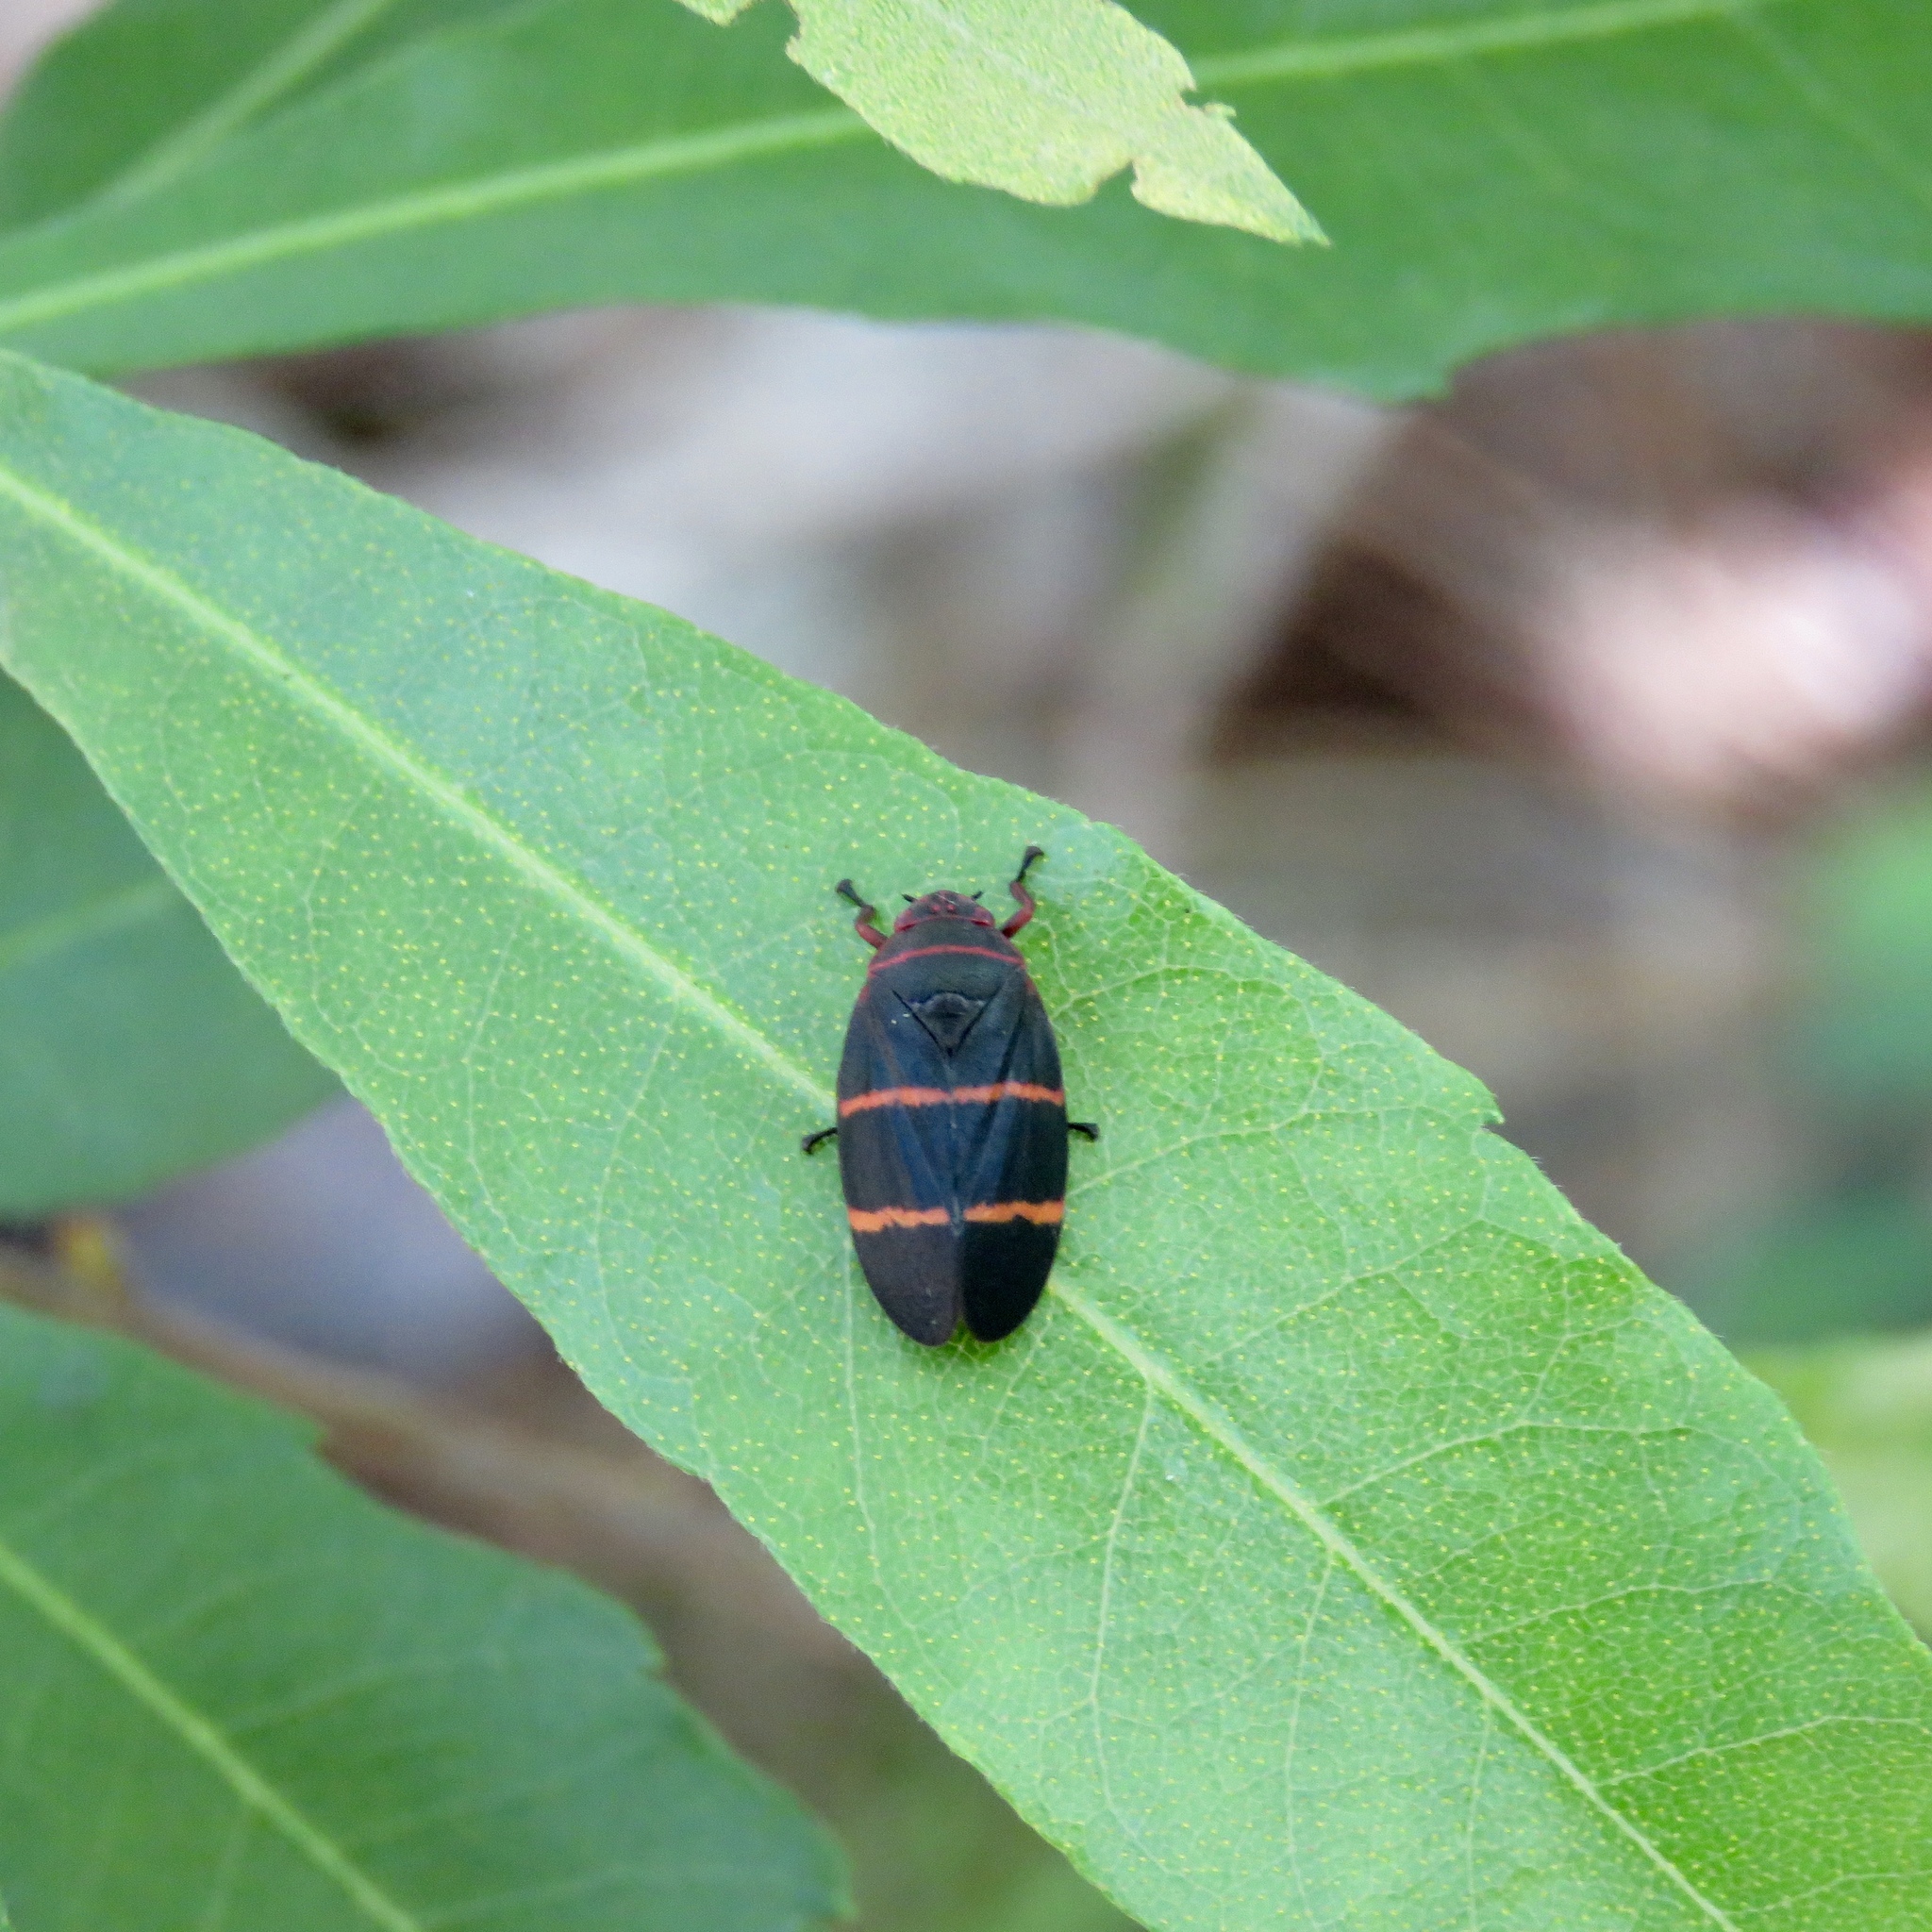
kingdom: Animalia
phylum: Arthropoda
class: Insecta
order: Hemiptera
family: Cercopidae
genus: Prosapia
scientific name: Prosapia bicincta
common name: Twolined spittlebug
